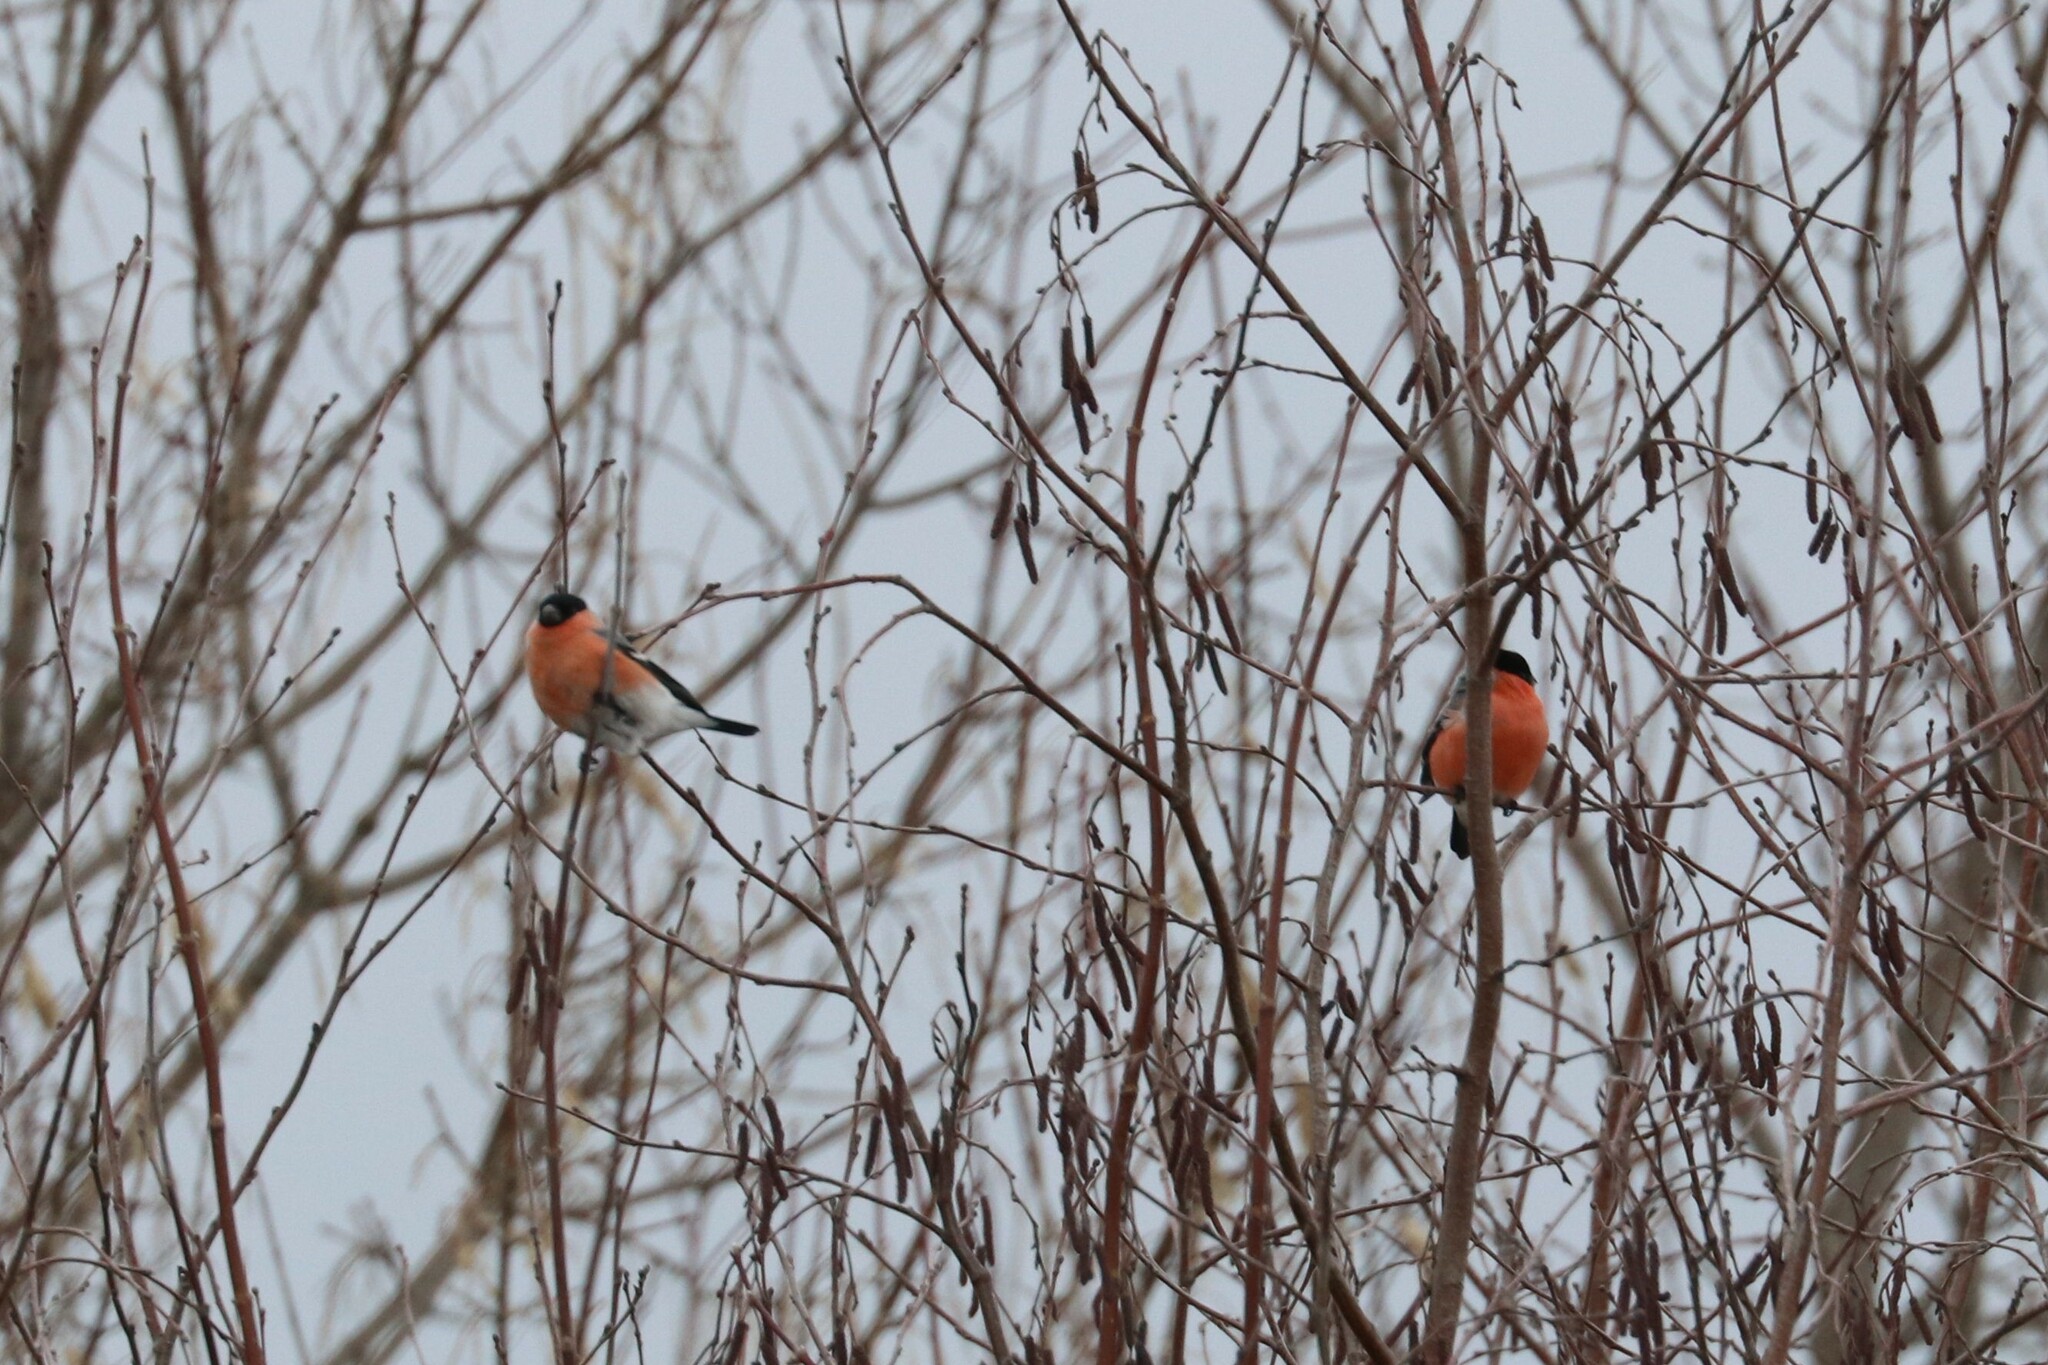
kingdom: Animalia
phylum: Chordata
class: Aves
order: Passeriformes
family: Fringillidae
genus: Pyrrhula
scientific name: Pyrrhula pyrrhula
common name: Eurasian bullfinch
